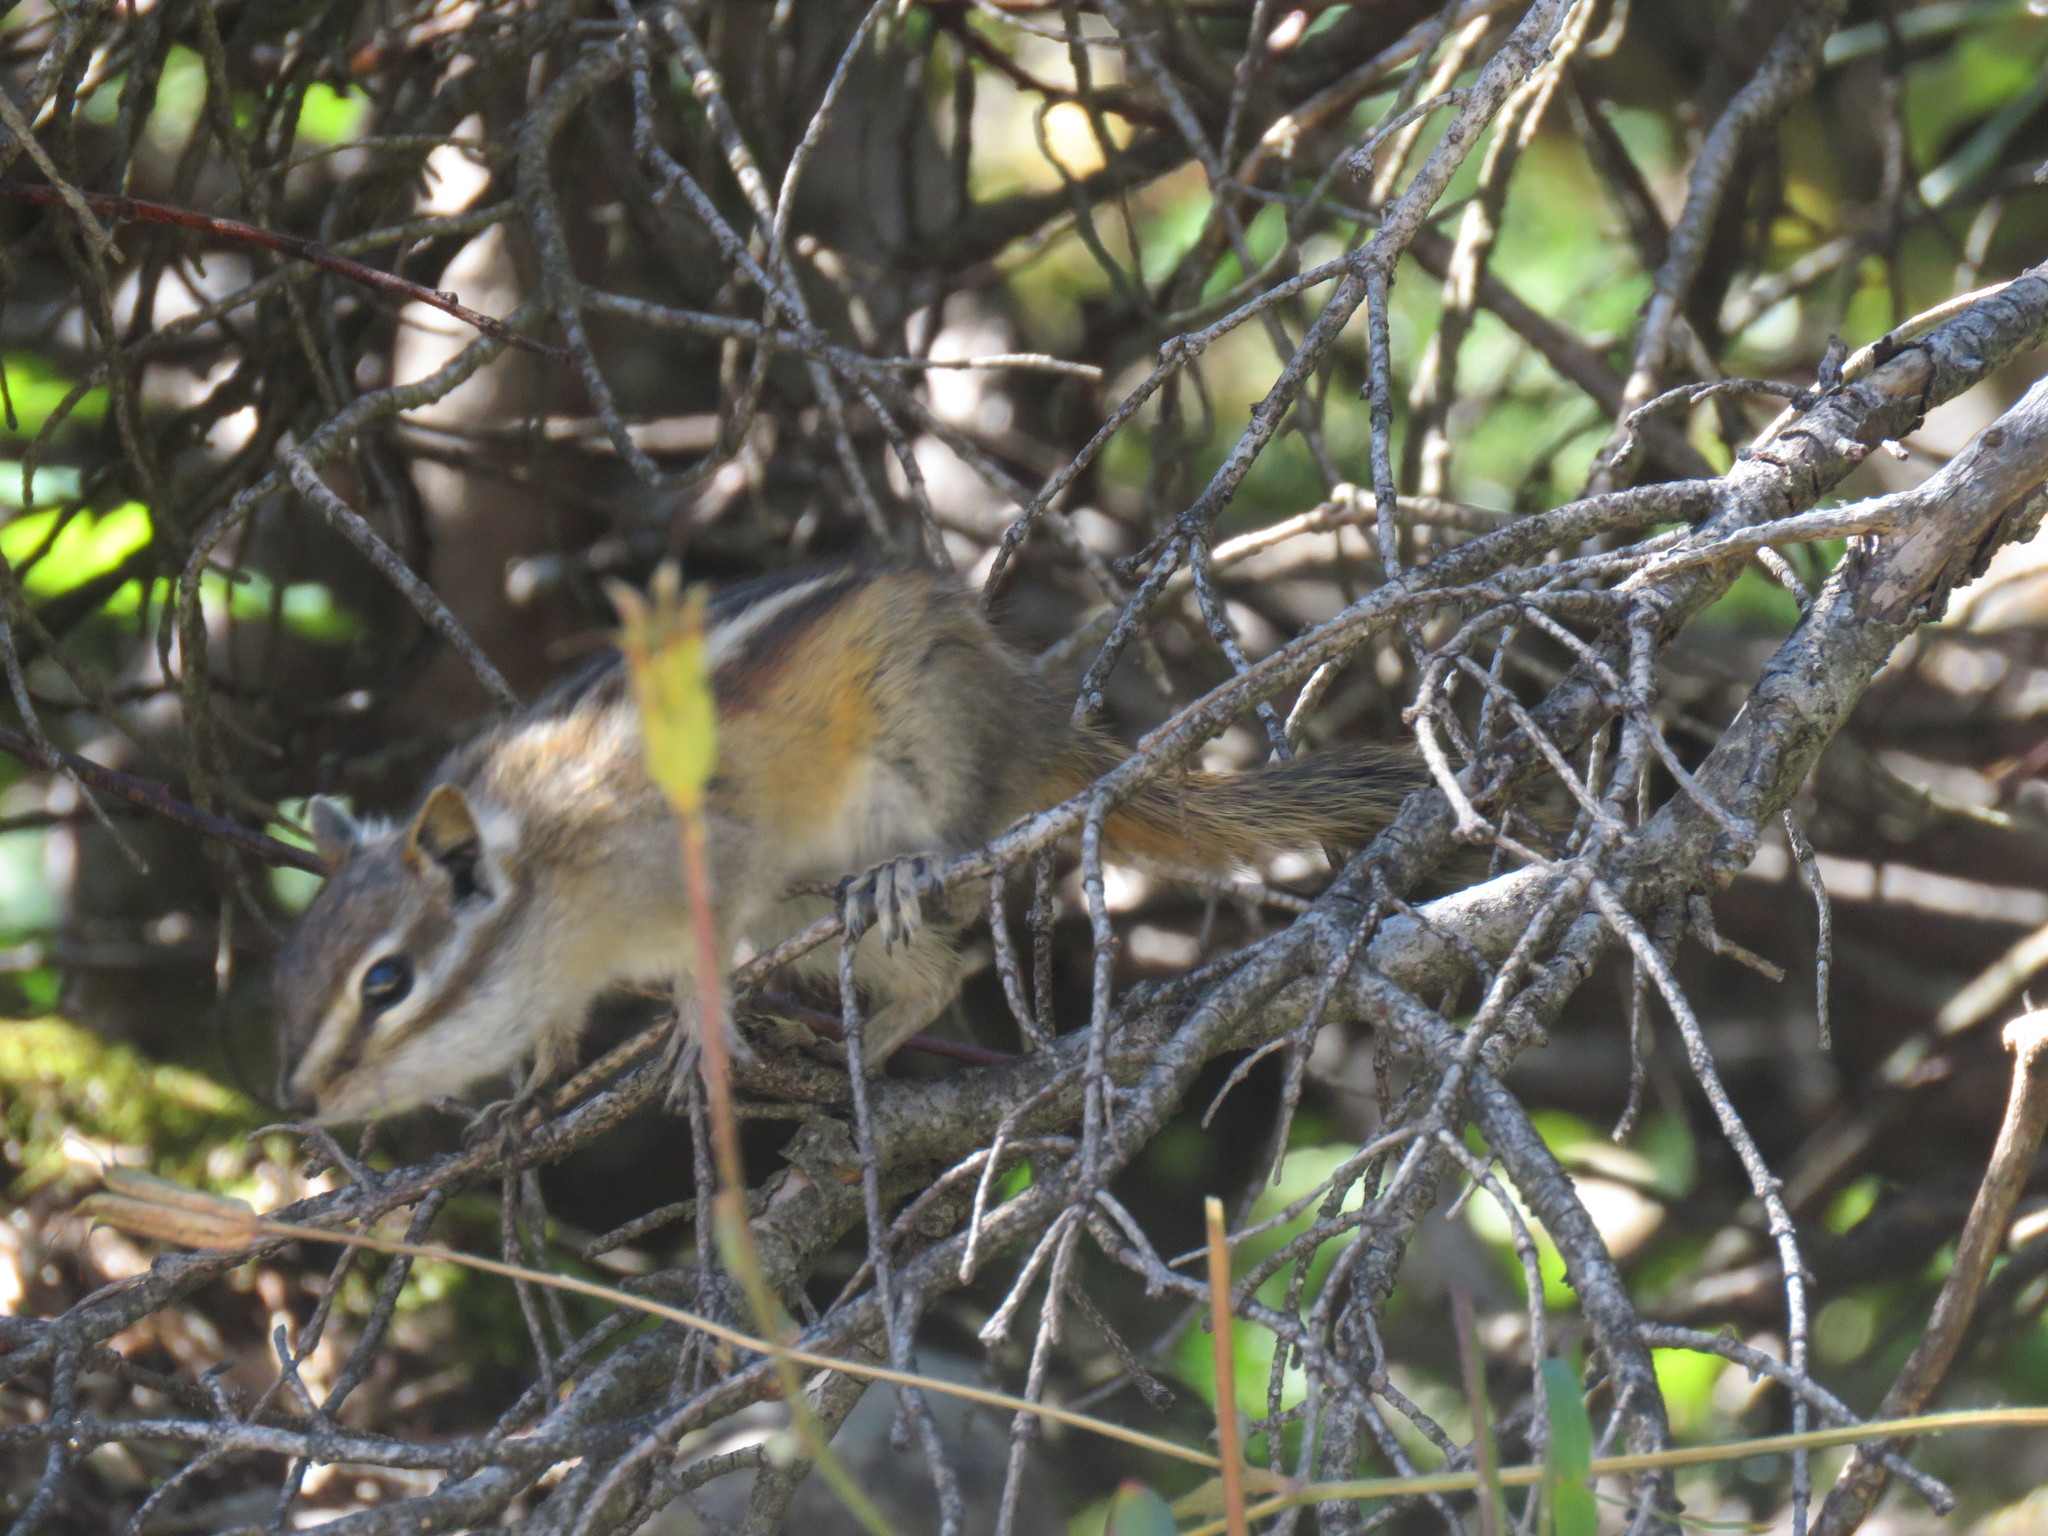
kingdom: Animalia
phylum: Chordata
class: Mammalia
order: Rodentia
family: Sciuridae
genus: Tamias
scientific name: Tamias minimus
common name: Least chipmunk
